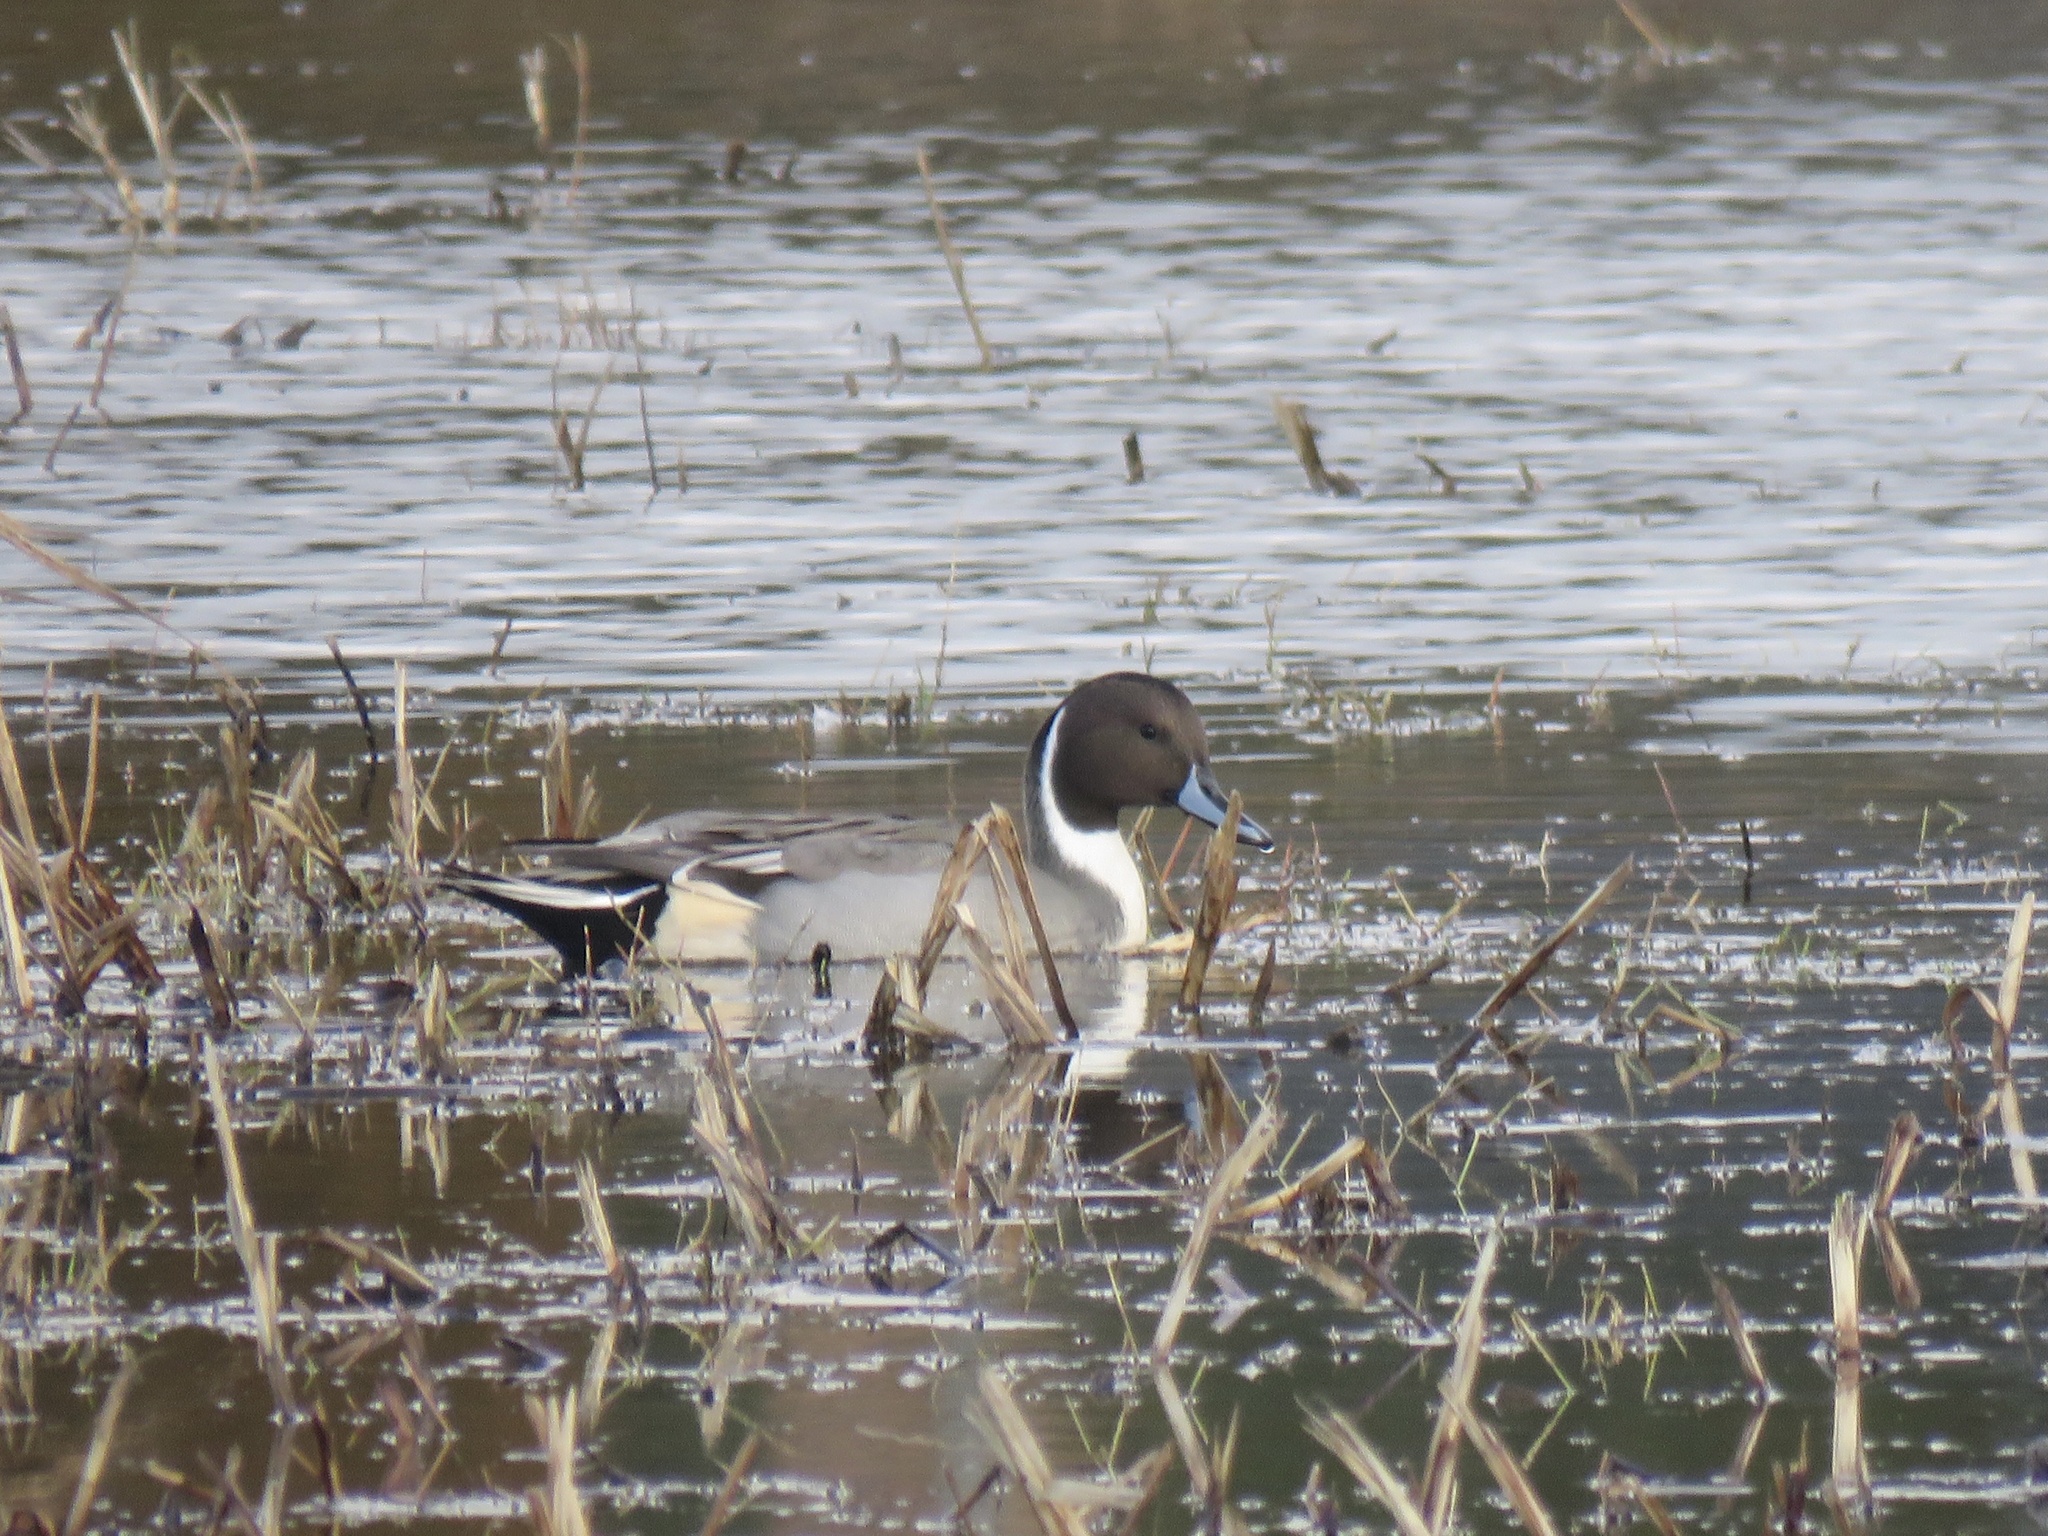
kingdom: Animalia
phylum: Chordata
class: Aves
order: Anseriformes
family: Anatidae
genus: Anas
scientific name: Anas acuta
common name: Northern pintail
